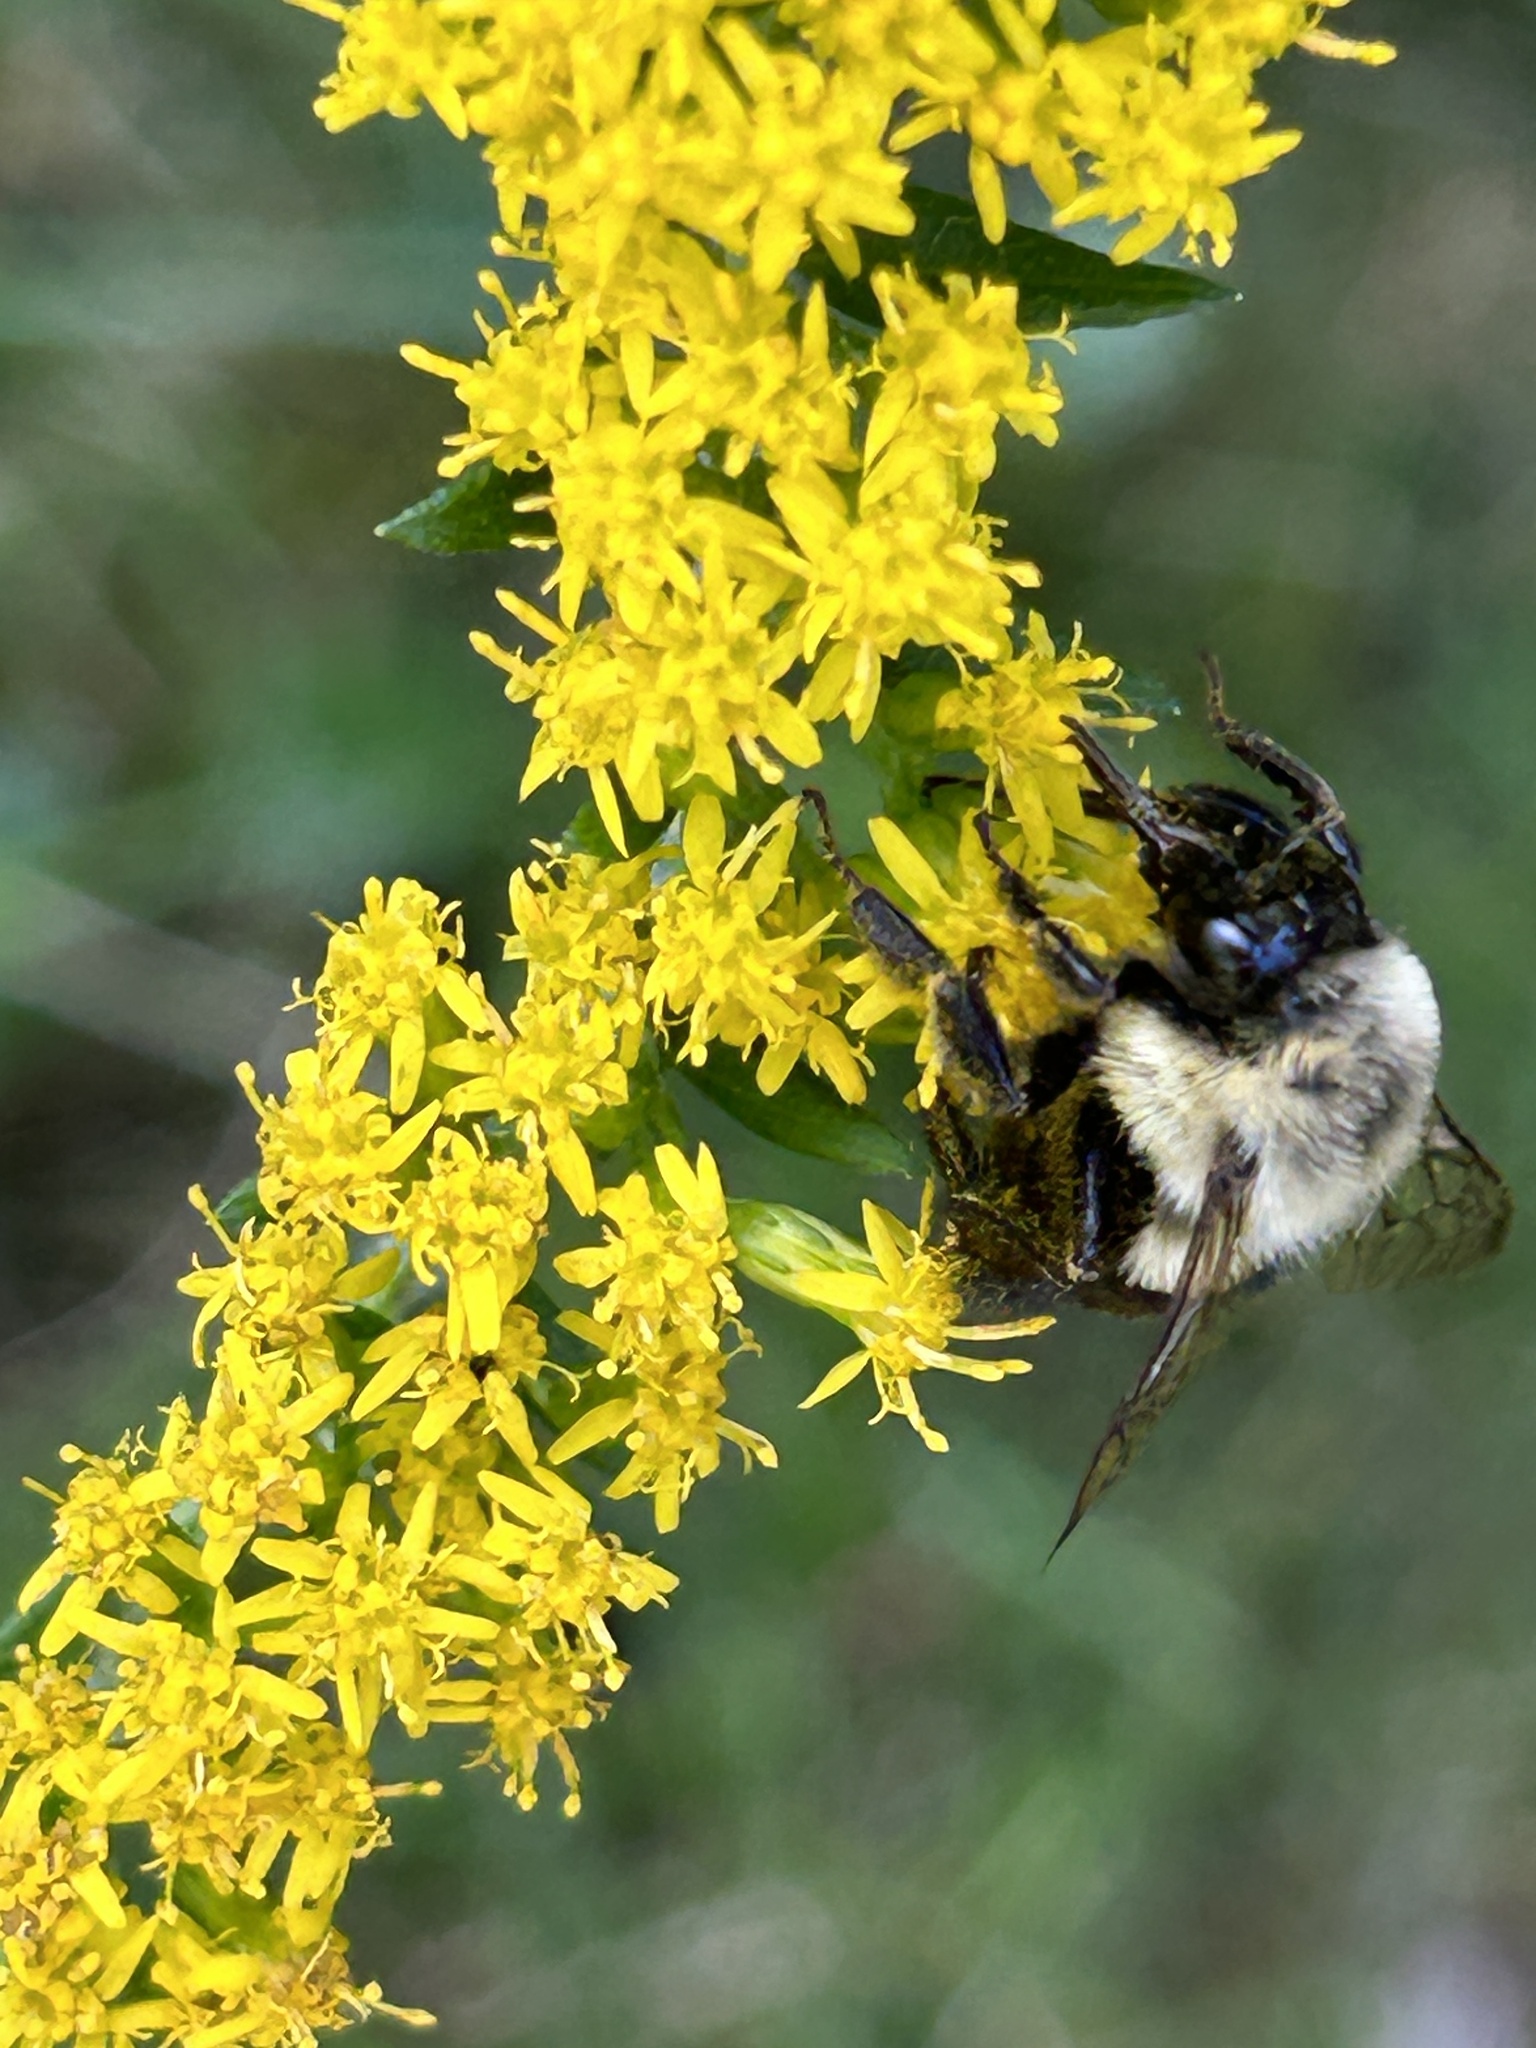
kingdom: Animalia
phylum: Arthropoda
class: Insecta
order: Hymenoptera
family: Apidae
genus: Bombus
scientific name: Bombus impatiens
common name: Common eastern bumble bee
